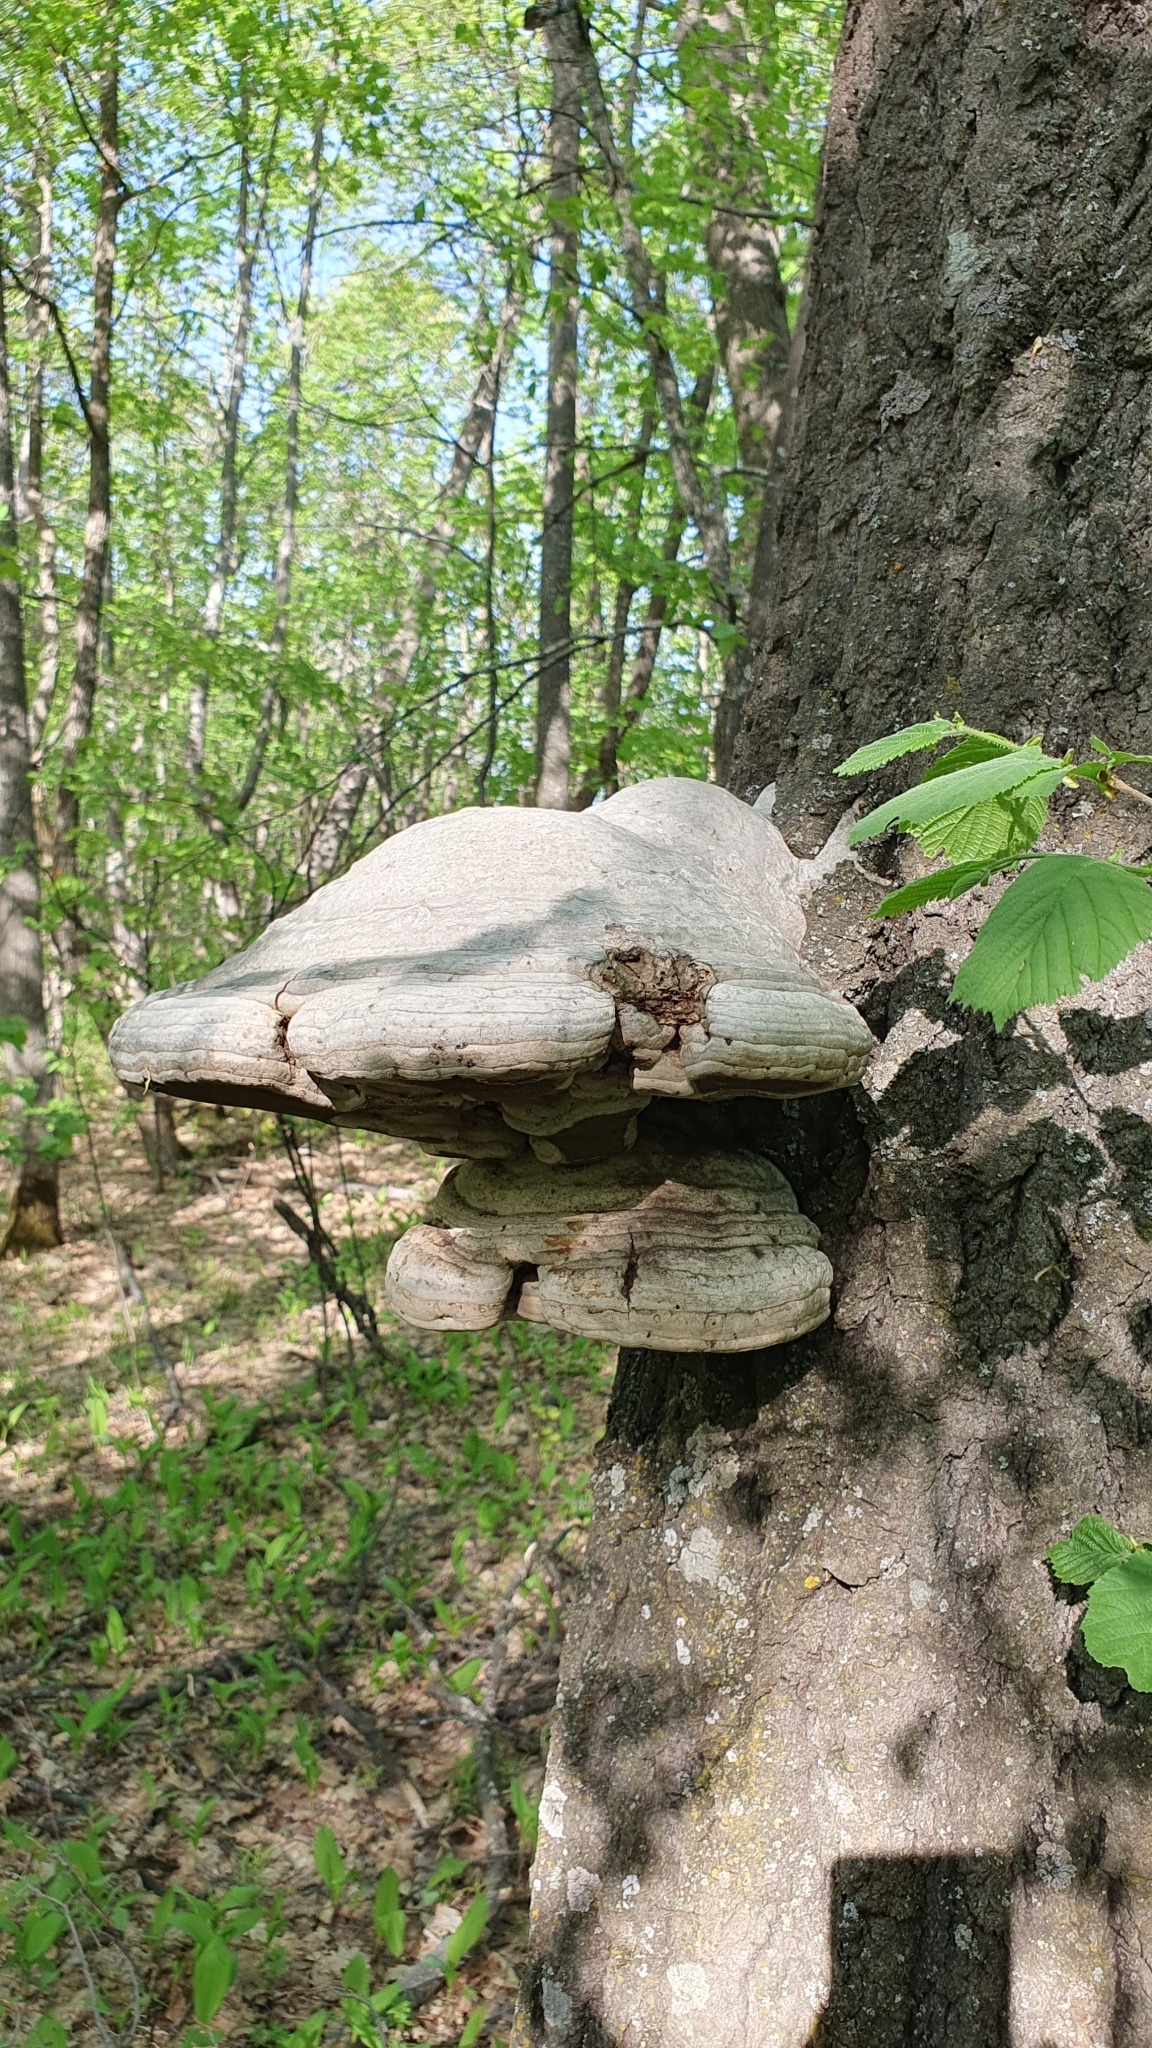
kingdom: Fungi
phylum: Basidiomycota
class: Agaricomycetes
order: Polyporales
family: Polyporaceae
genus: Fomes
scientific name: Fomes fomentarius
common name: Hoof fungus
